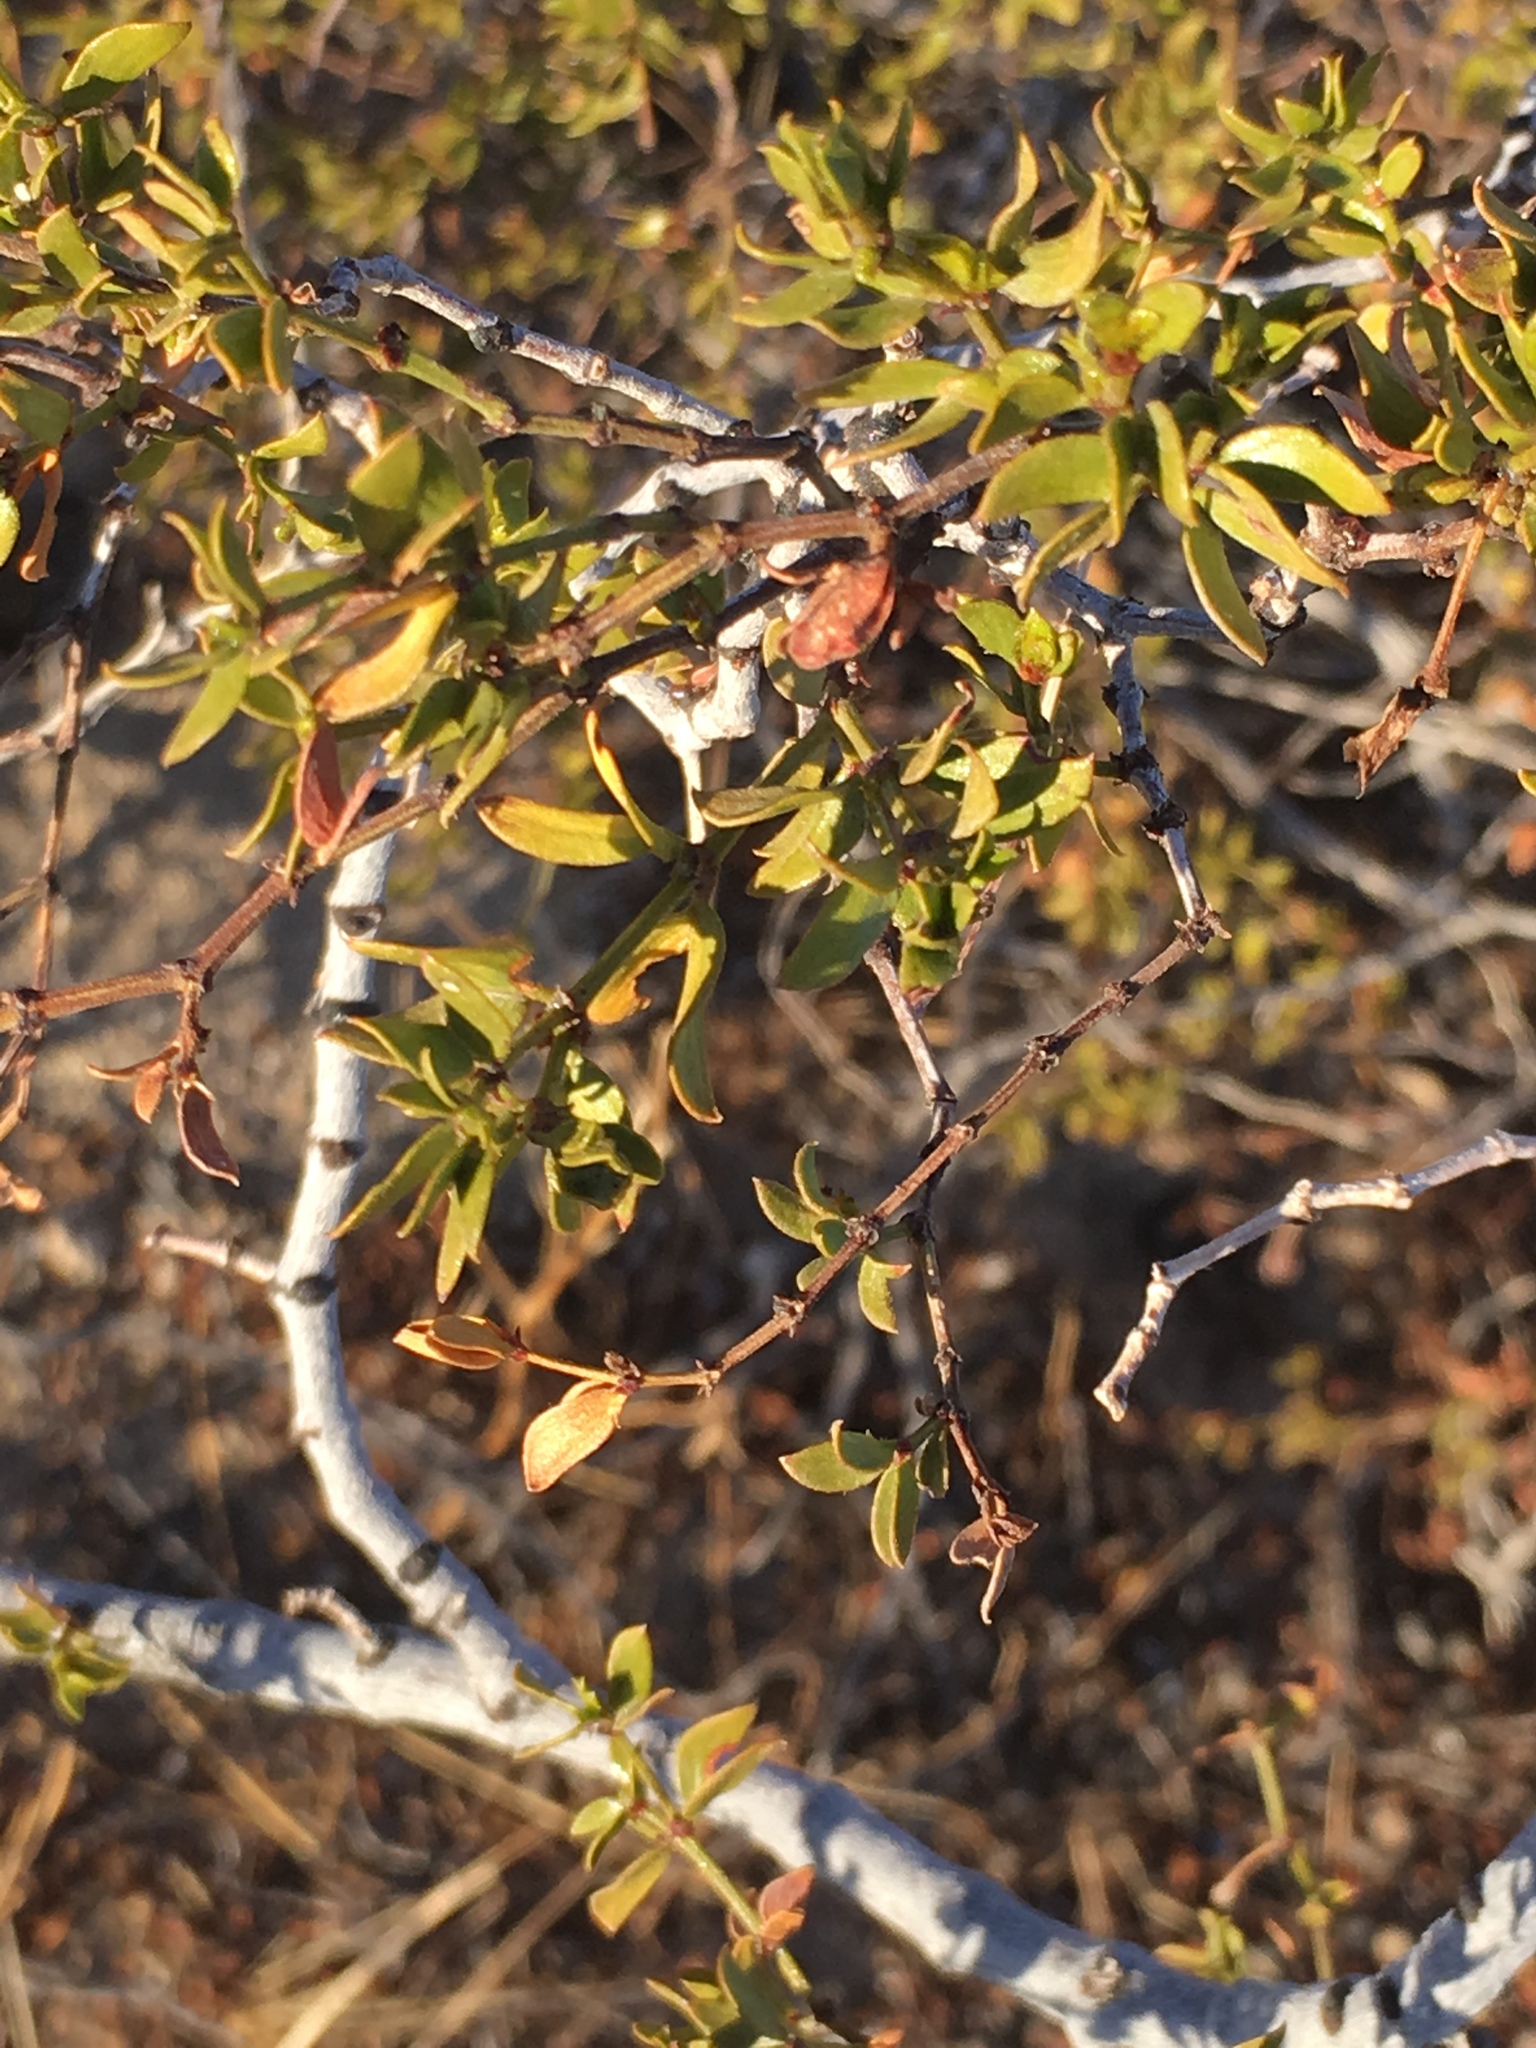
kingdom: Plantae
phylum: Tracheophyta
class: Magnoliopsida
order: Zygophyllales
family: Zygophyllaceae
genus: Larrea
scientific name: Larrea tridentata
